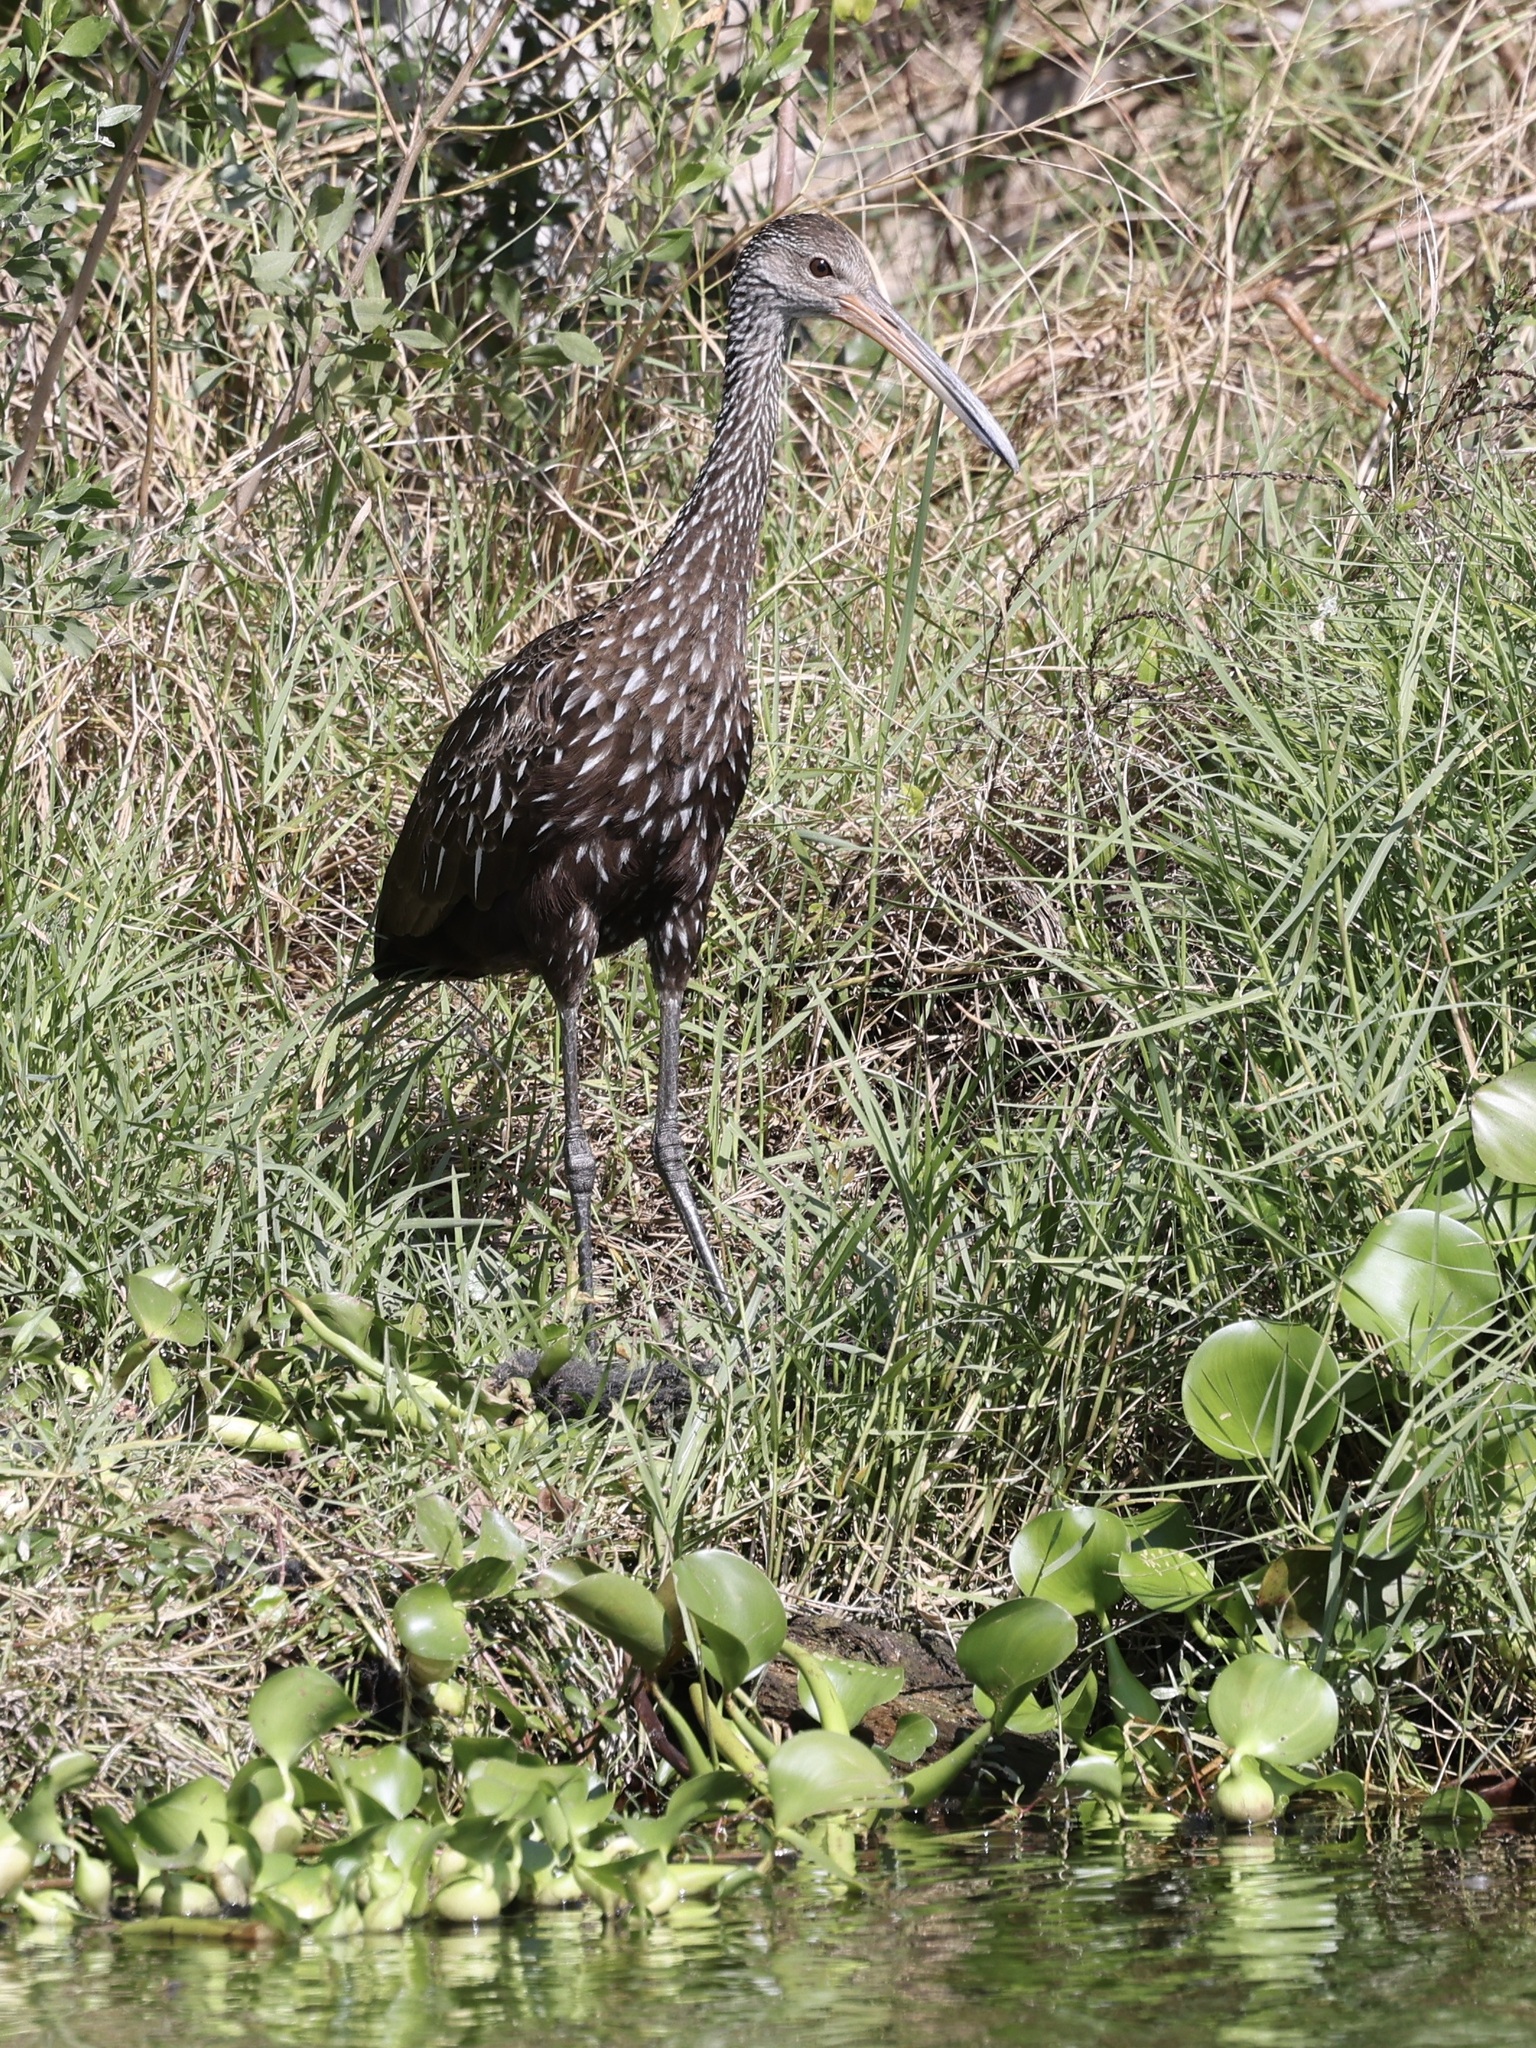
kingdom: Animalia
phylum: Chordata
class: Aves
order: Gruiformes
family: Aramidae
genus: Aramus
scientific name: Aramus guarauna
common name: Limpkin
